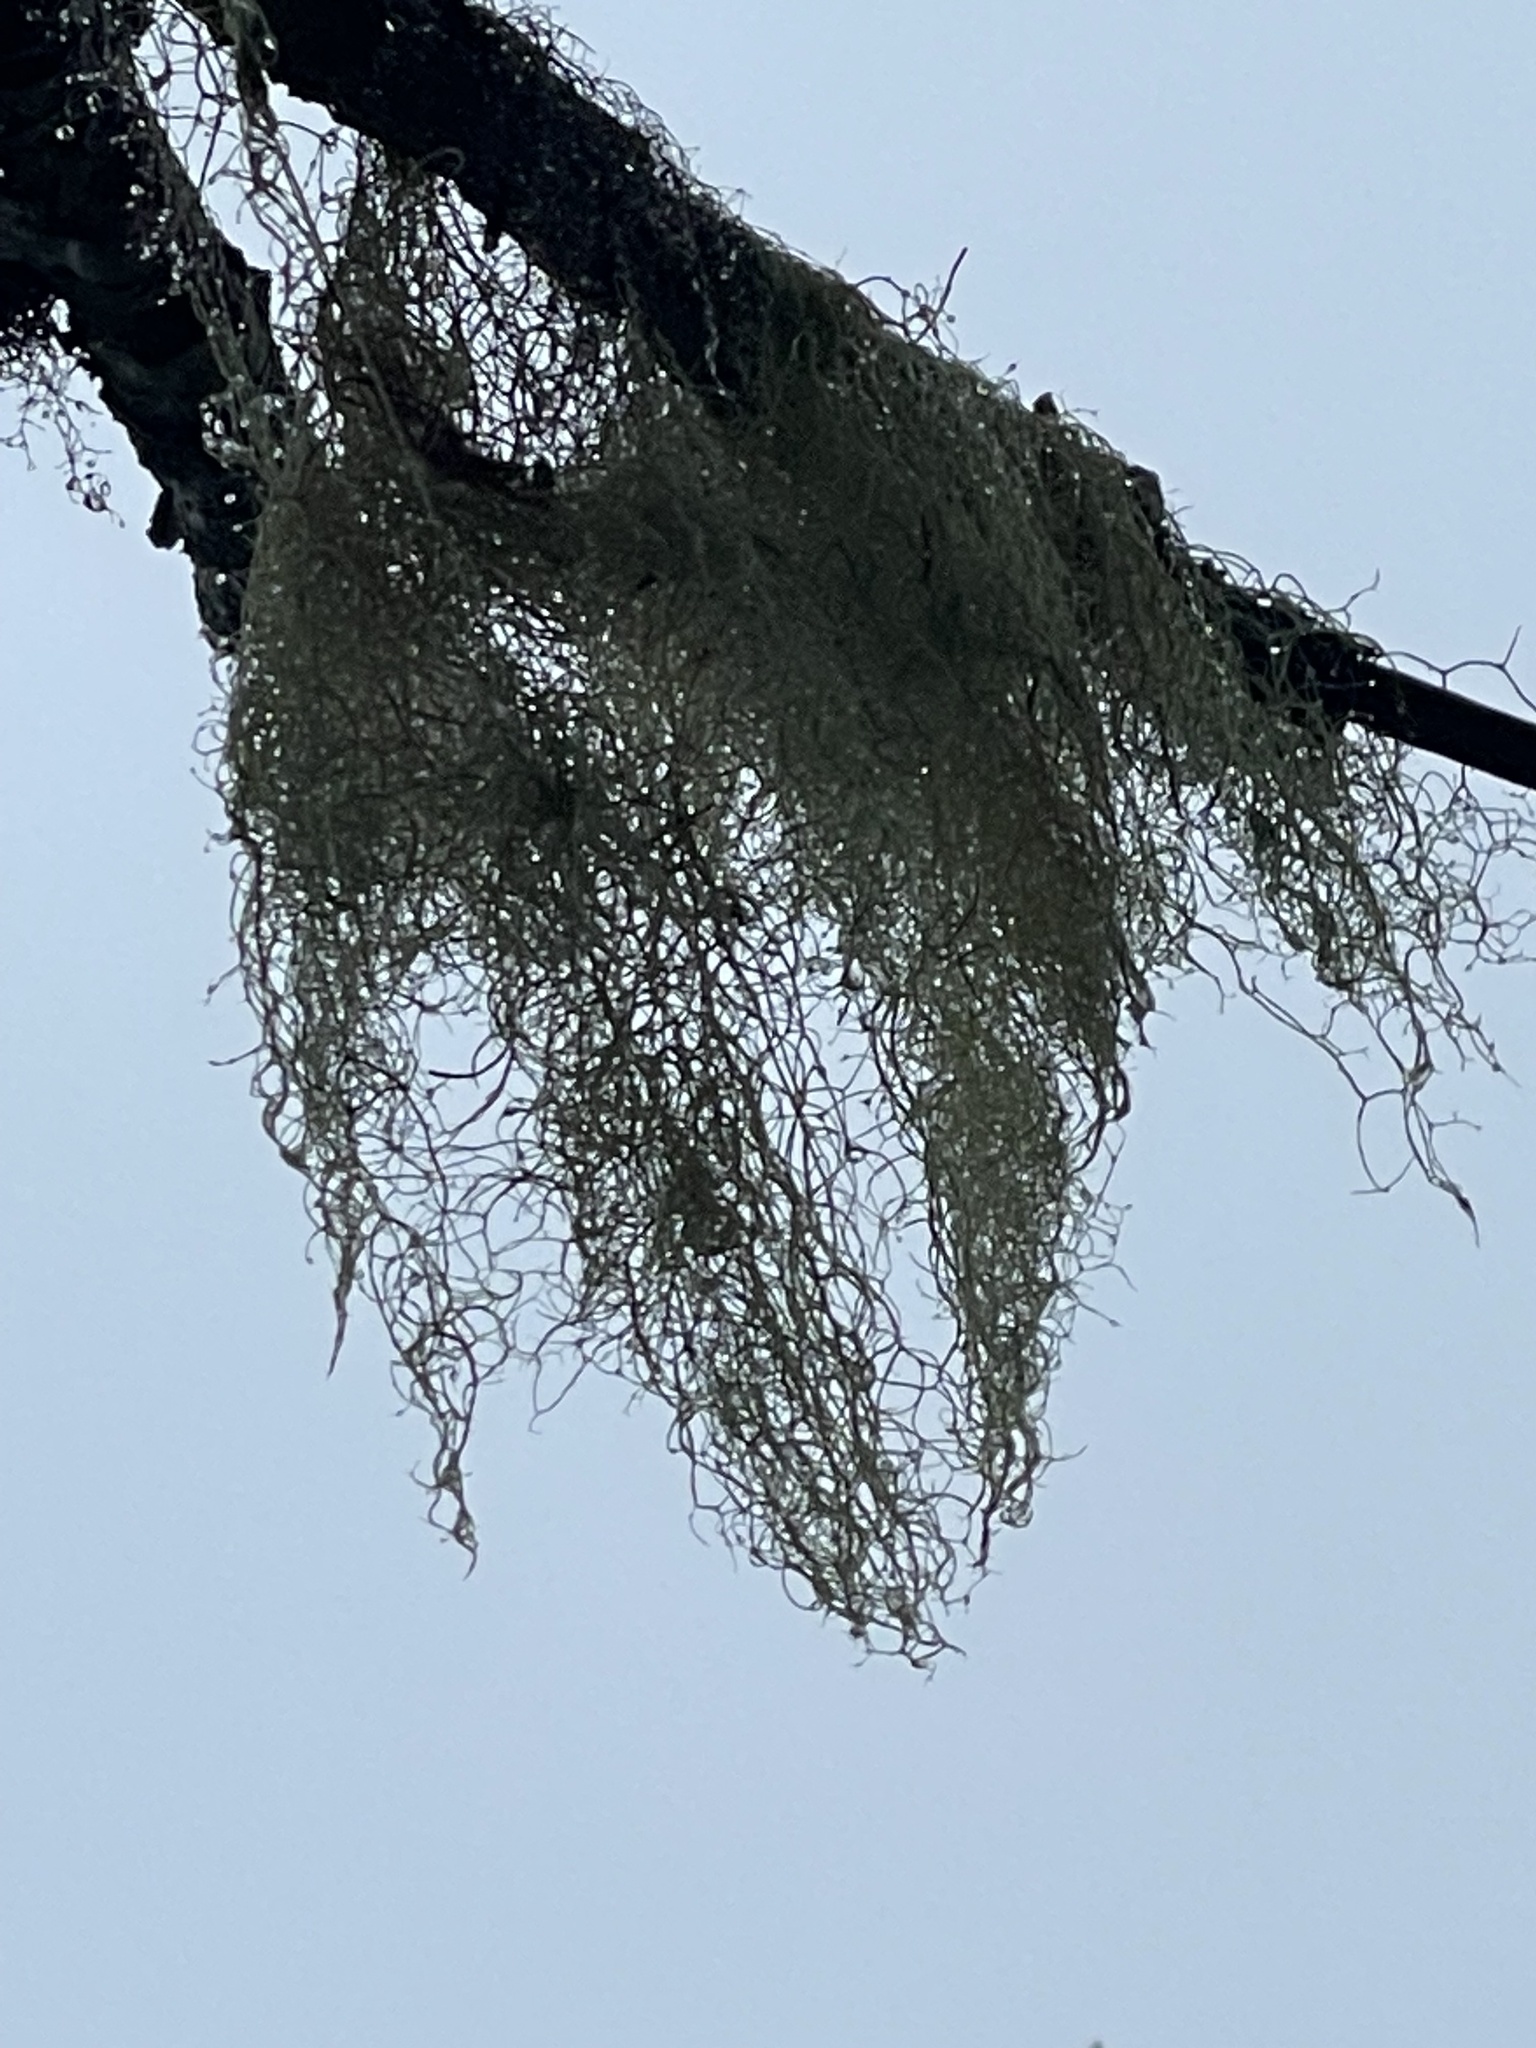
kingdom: Fungi
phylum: Ascomycota
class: Lecanoromycetes
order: Lecanorales
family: Parmeliaceae
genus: Alectoria
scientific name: Alectoria sarmentosa
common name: Witch's hair
